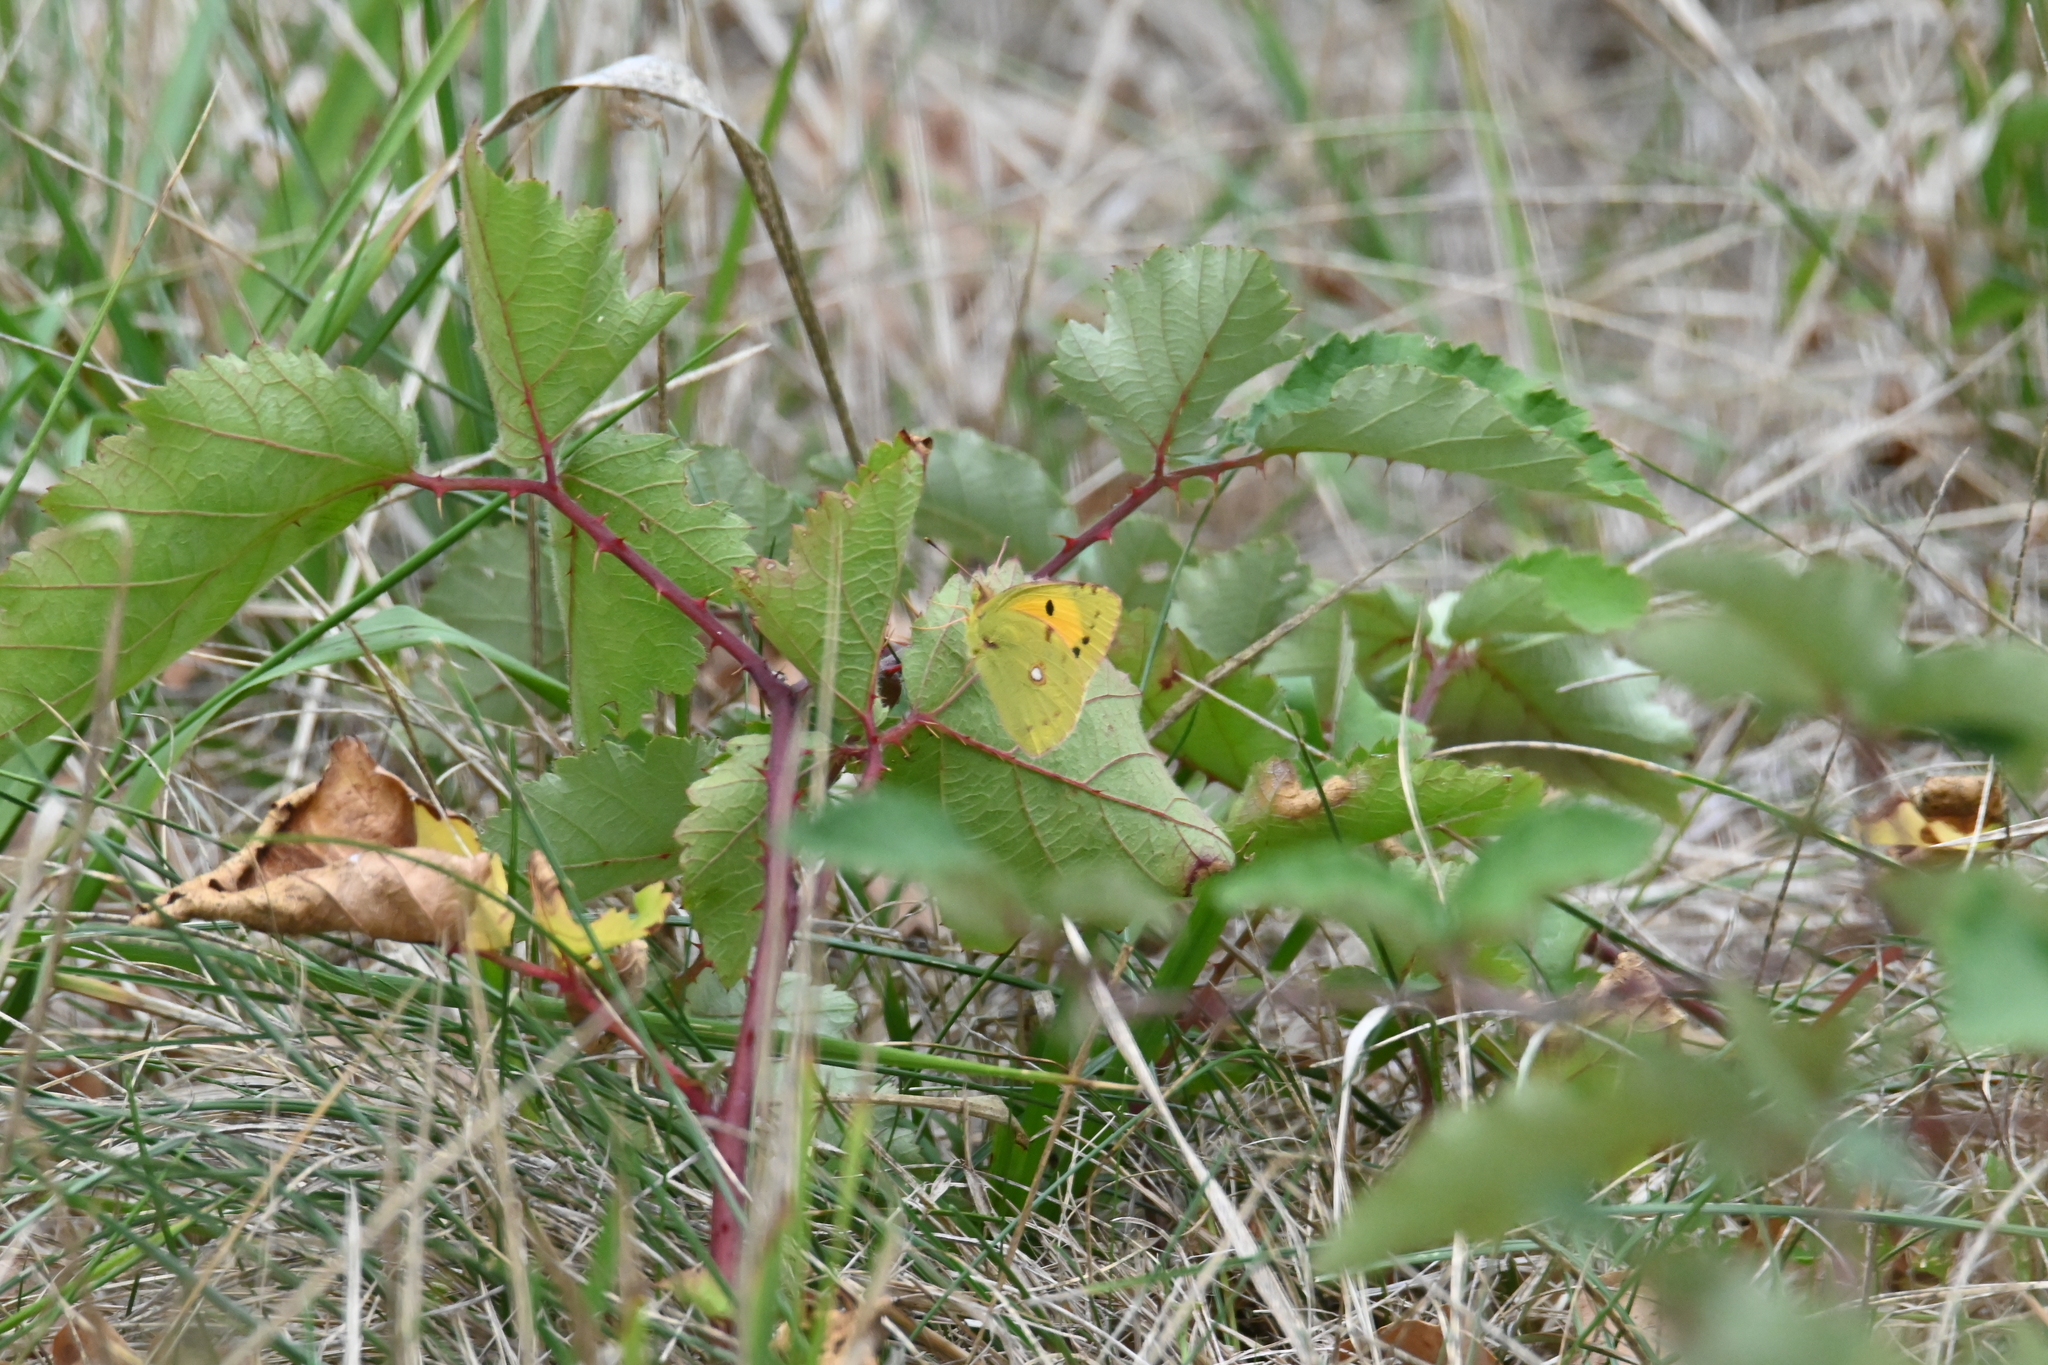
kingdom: Animalia
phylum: Arthropoda
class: Insecta
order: Lepidoptera
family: Pieridae
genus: Colias
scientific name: Colias croceus
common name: Clouded yellow
